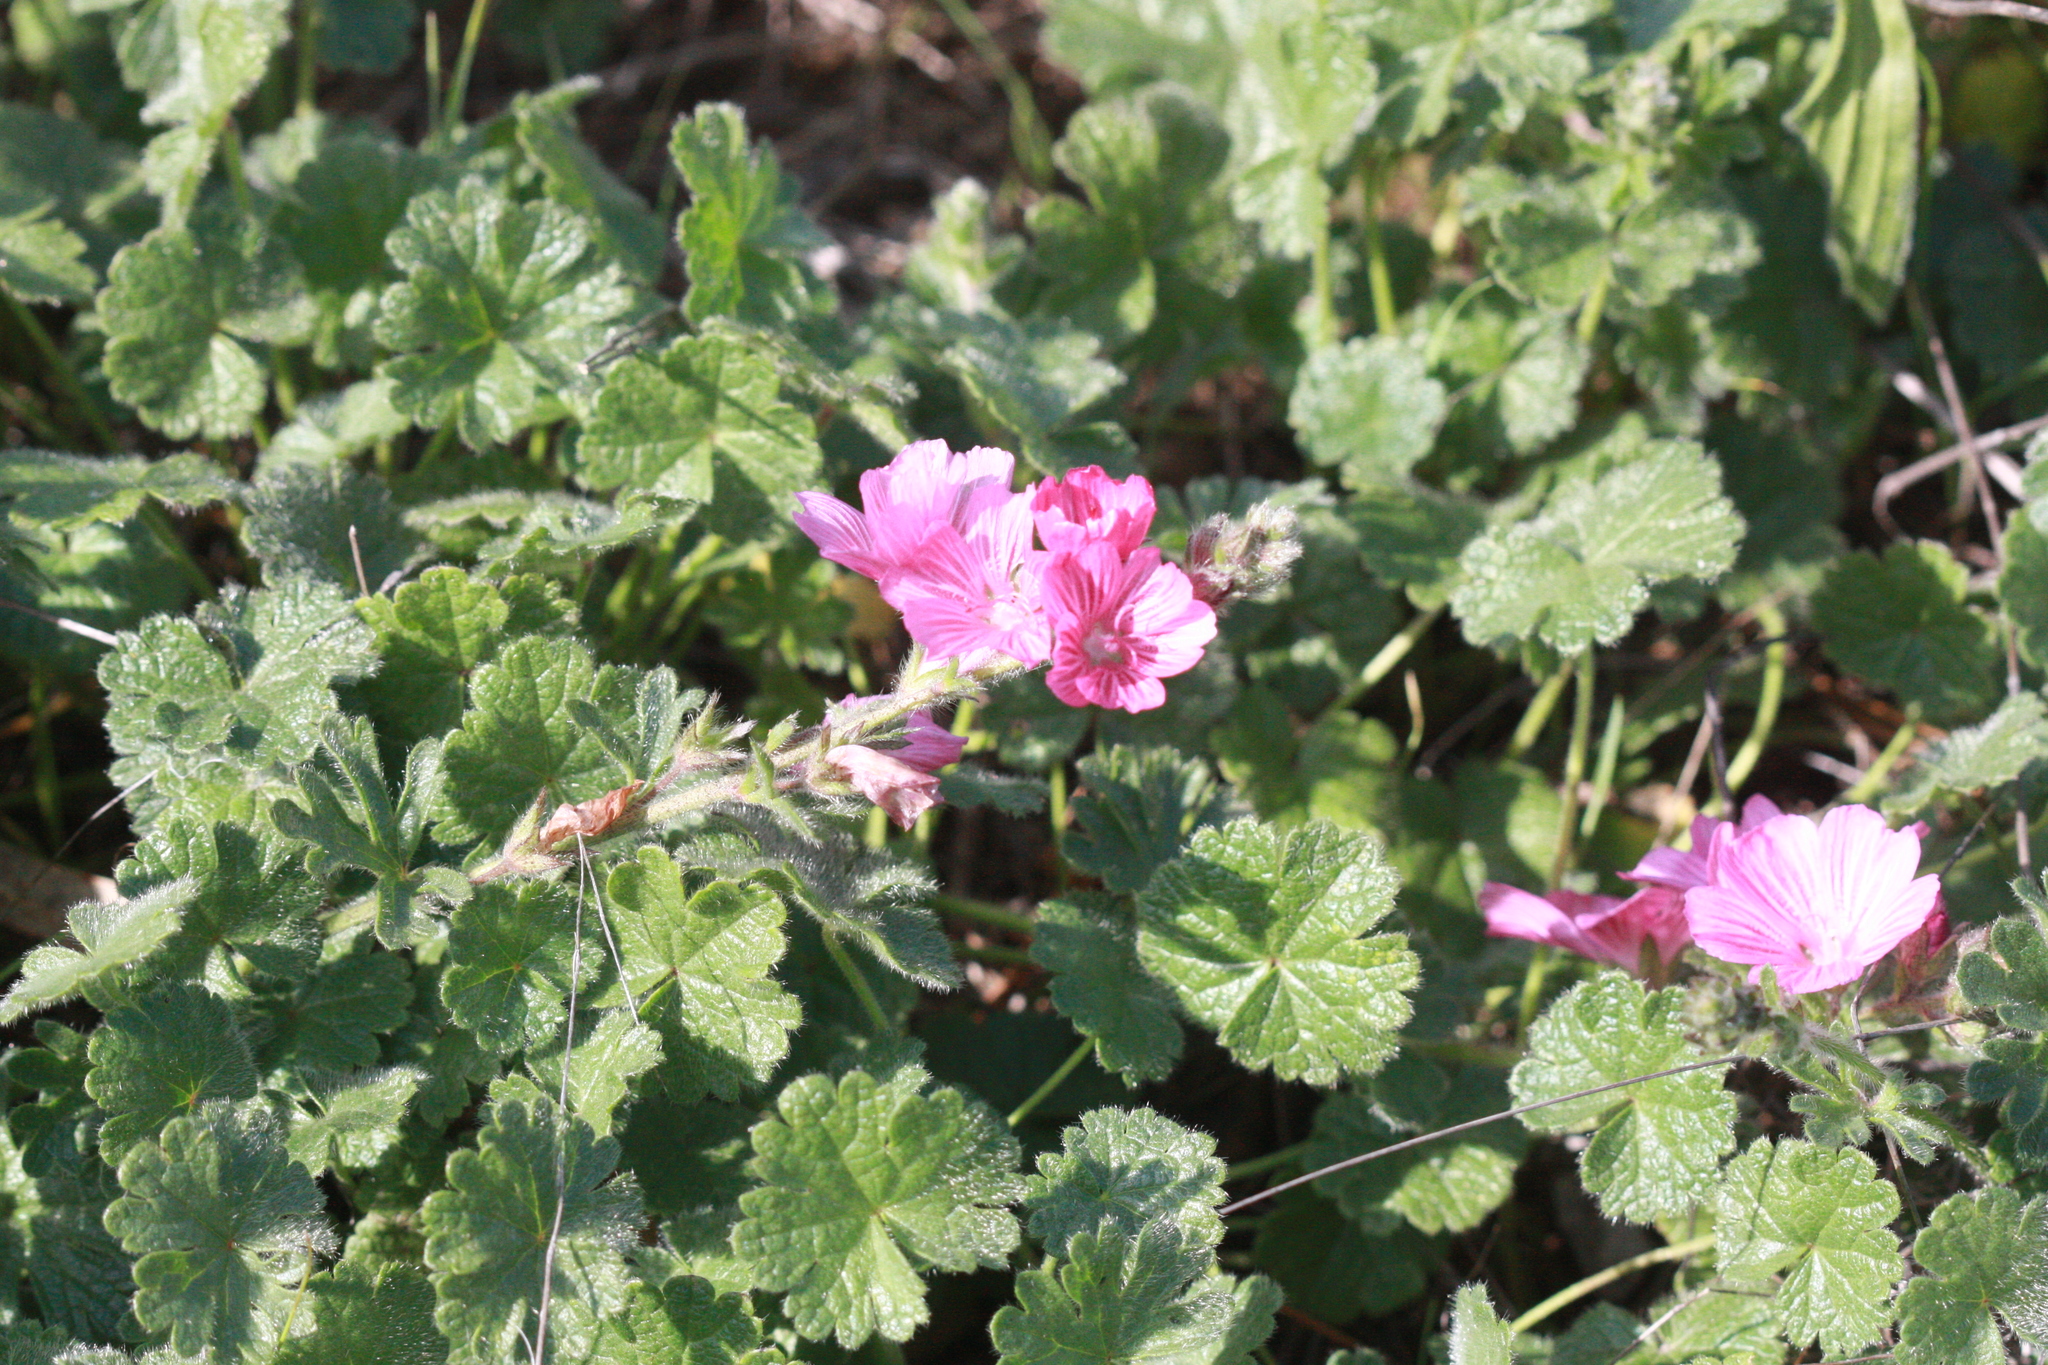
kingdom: Plantae
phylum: Tracheophyta
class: Magnoliopsida
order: Malvales
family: Malvaceae
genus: Sidalcea
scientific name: Sidalcea malviflora
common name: Greek mallow
